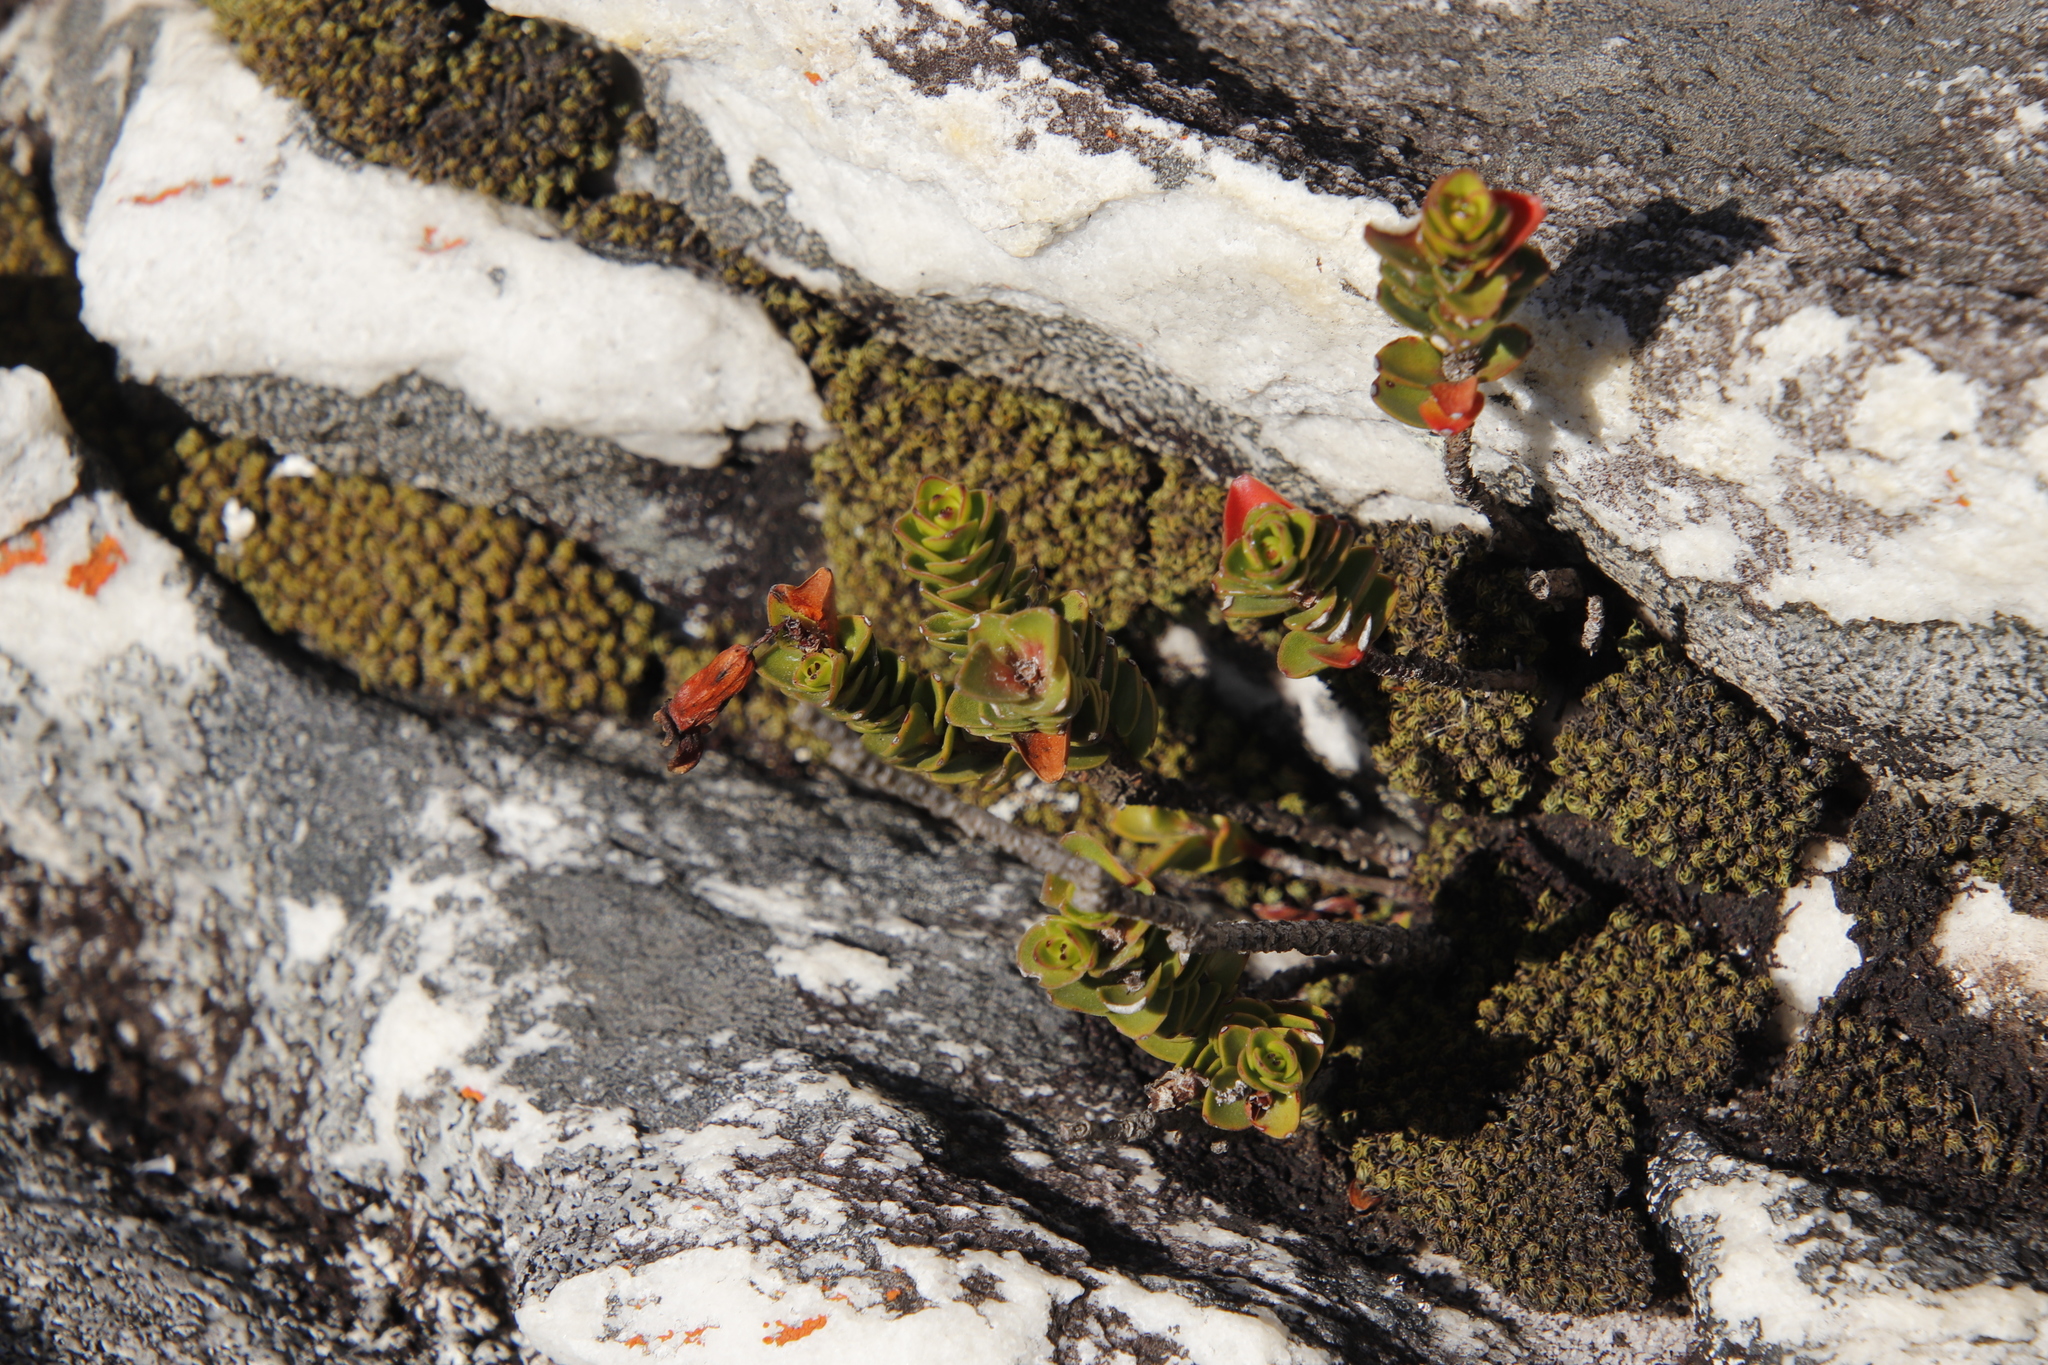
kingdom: Plantae
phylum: Tracheophyta
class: Magnoliopsida
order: Myrtales
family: Penaeaceae
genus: Sonderothamnus
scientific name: Sonderothamnus petraeus
